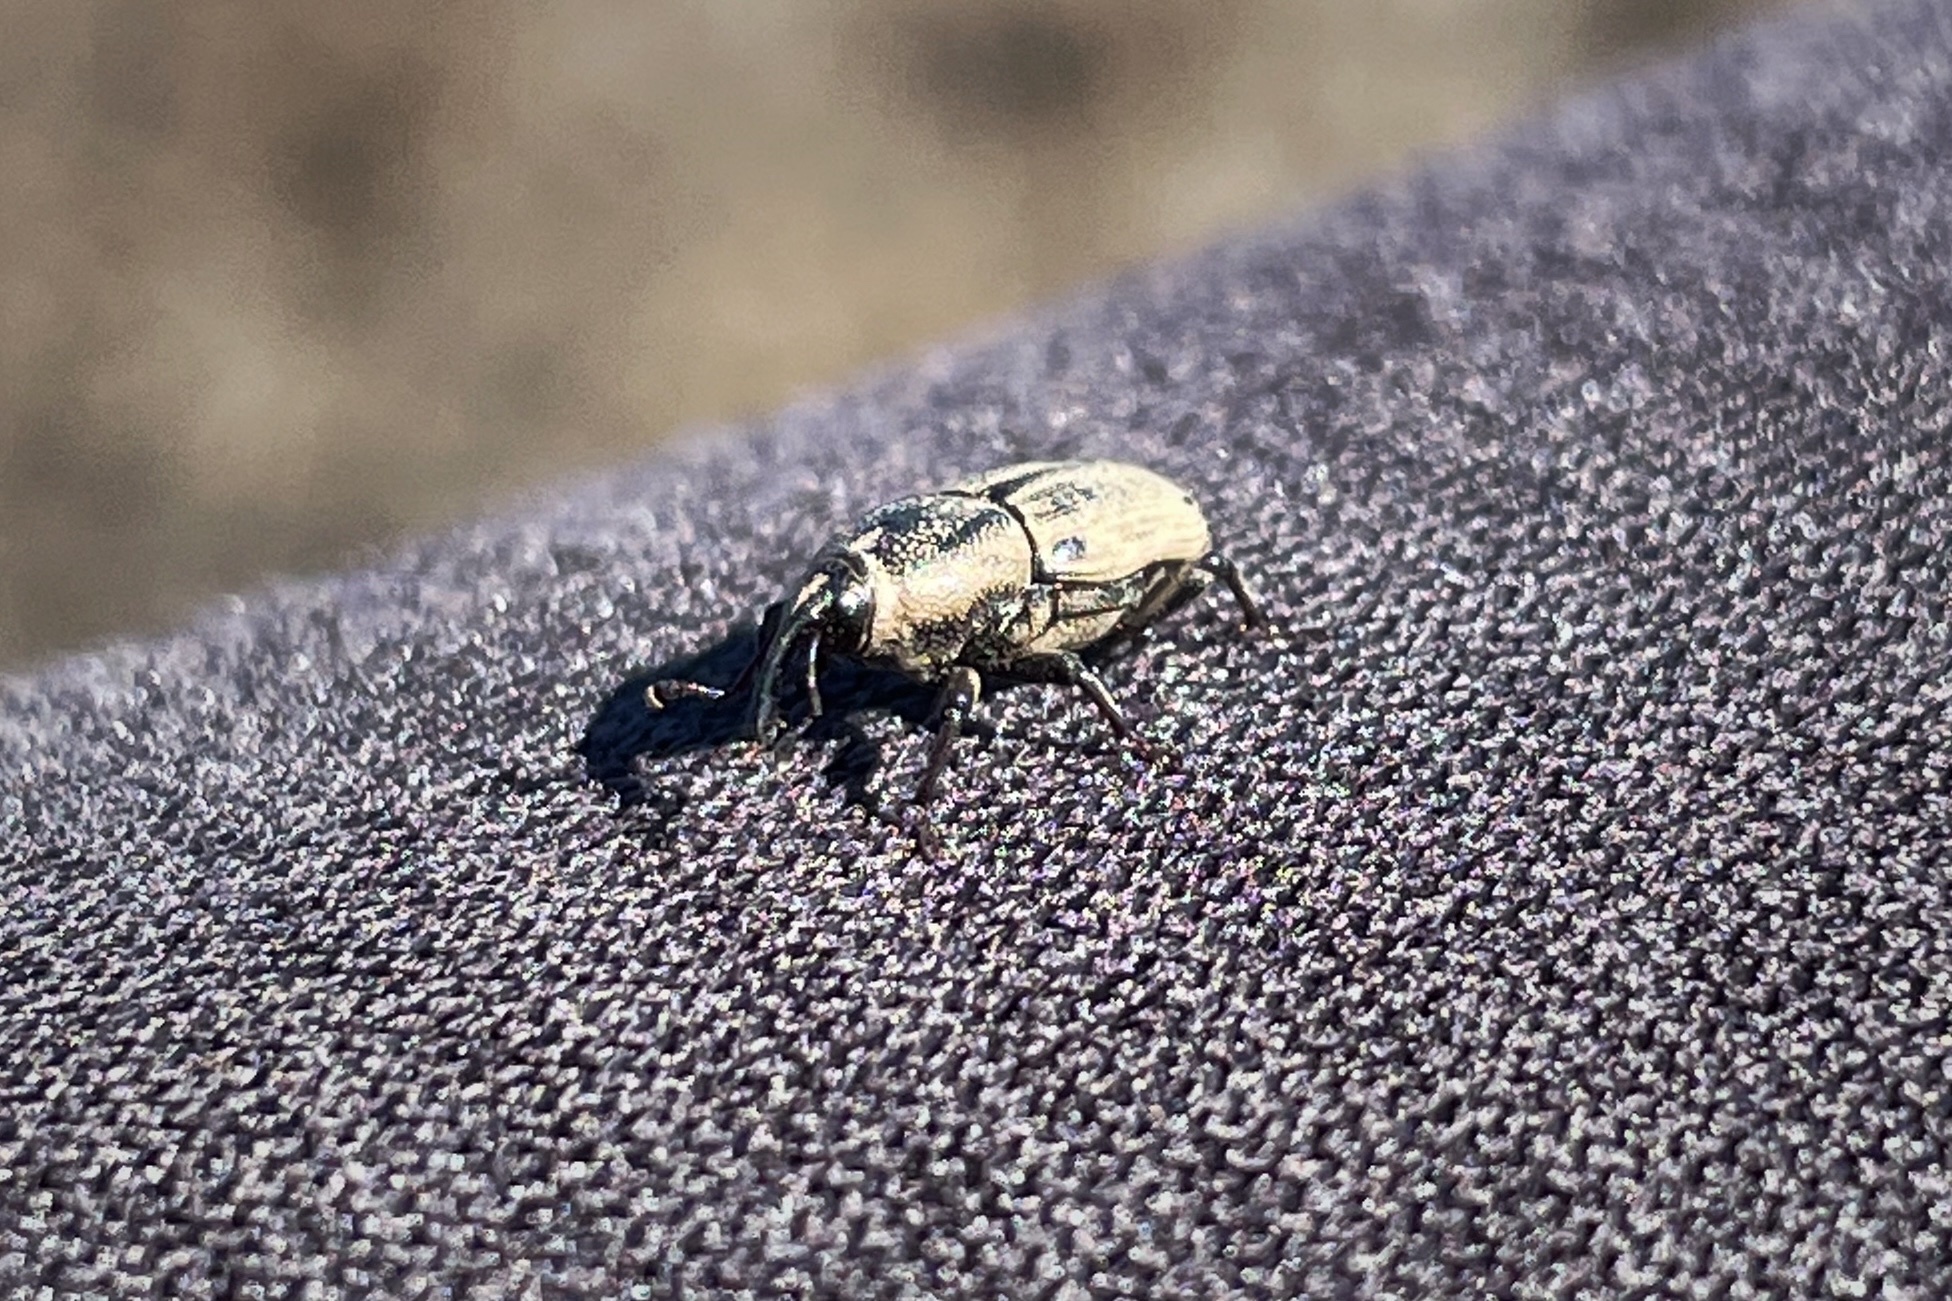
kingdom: Animalia
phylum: Arthropoda
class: Insecta
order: Coleoptera
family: Dryophthoridae
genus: Sphenophorus
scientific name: Sphenophorus venatus
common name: Hunting billbug
